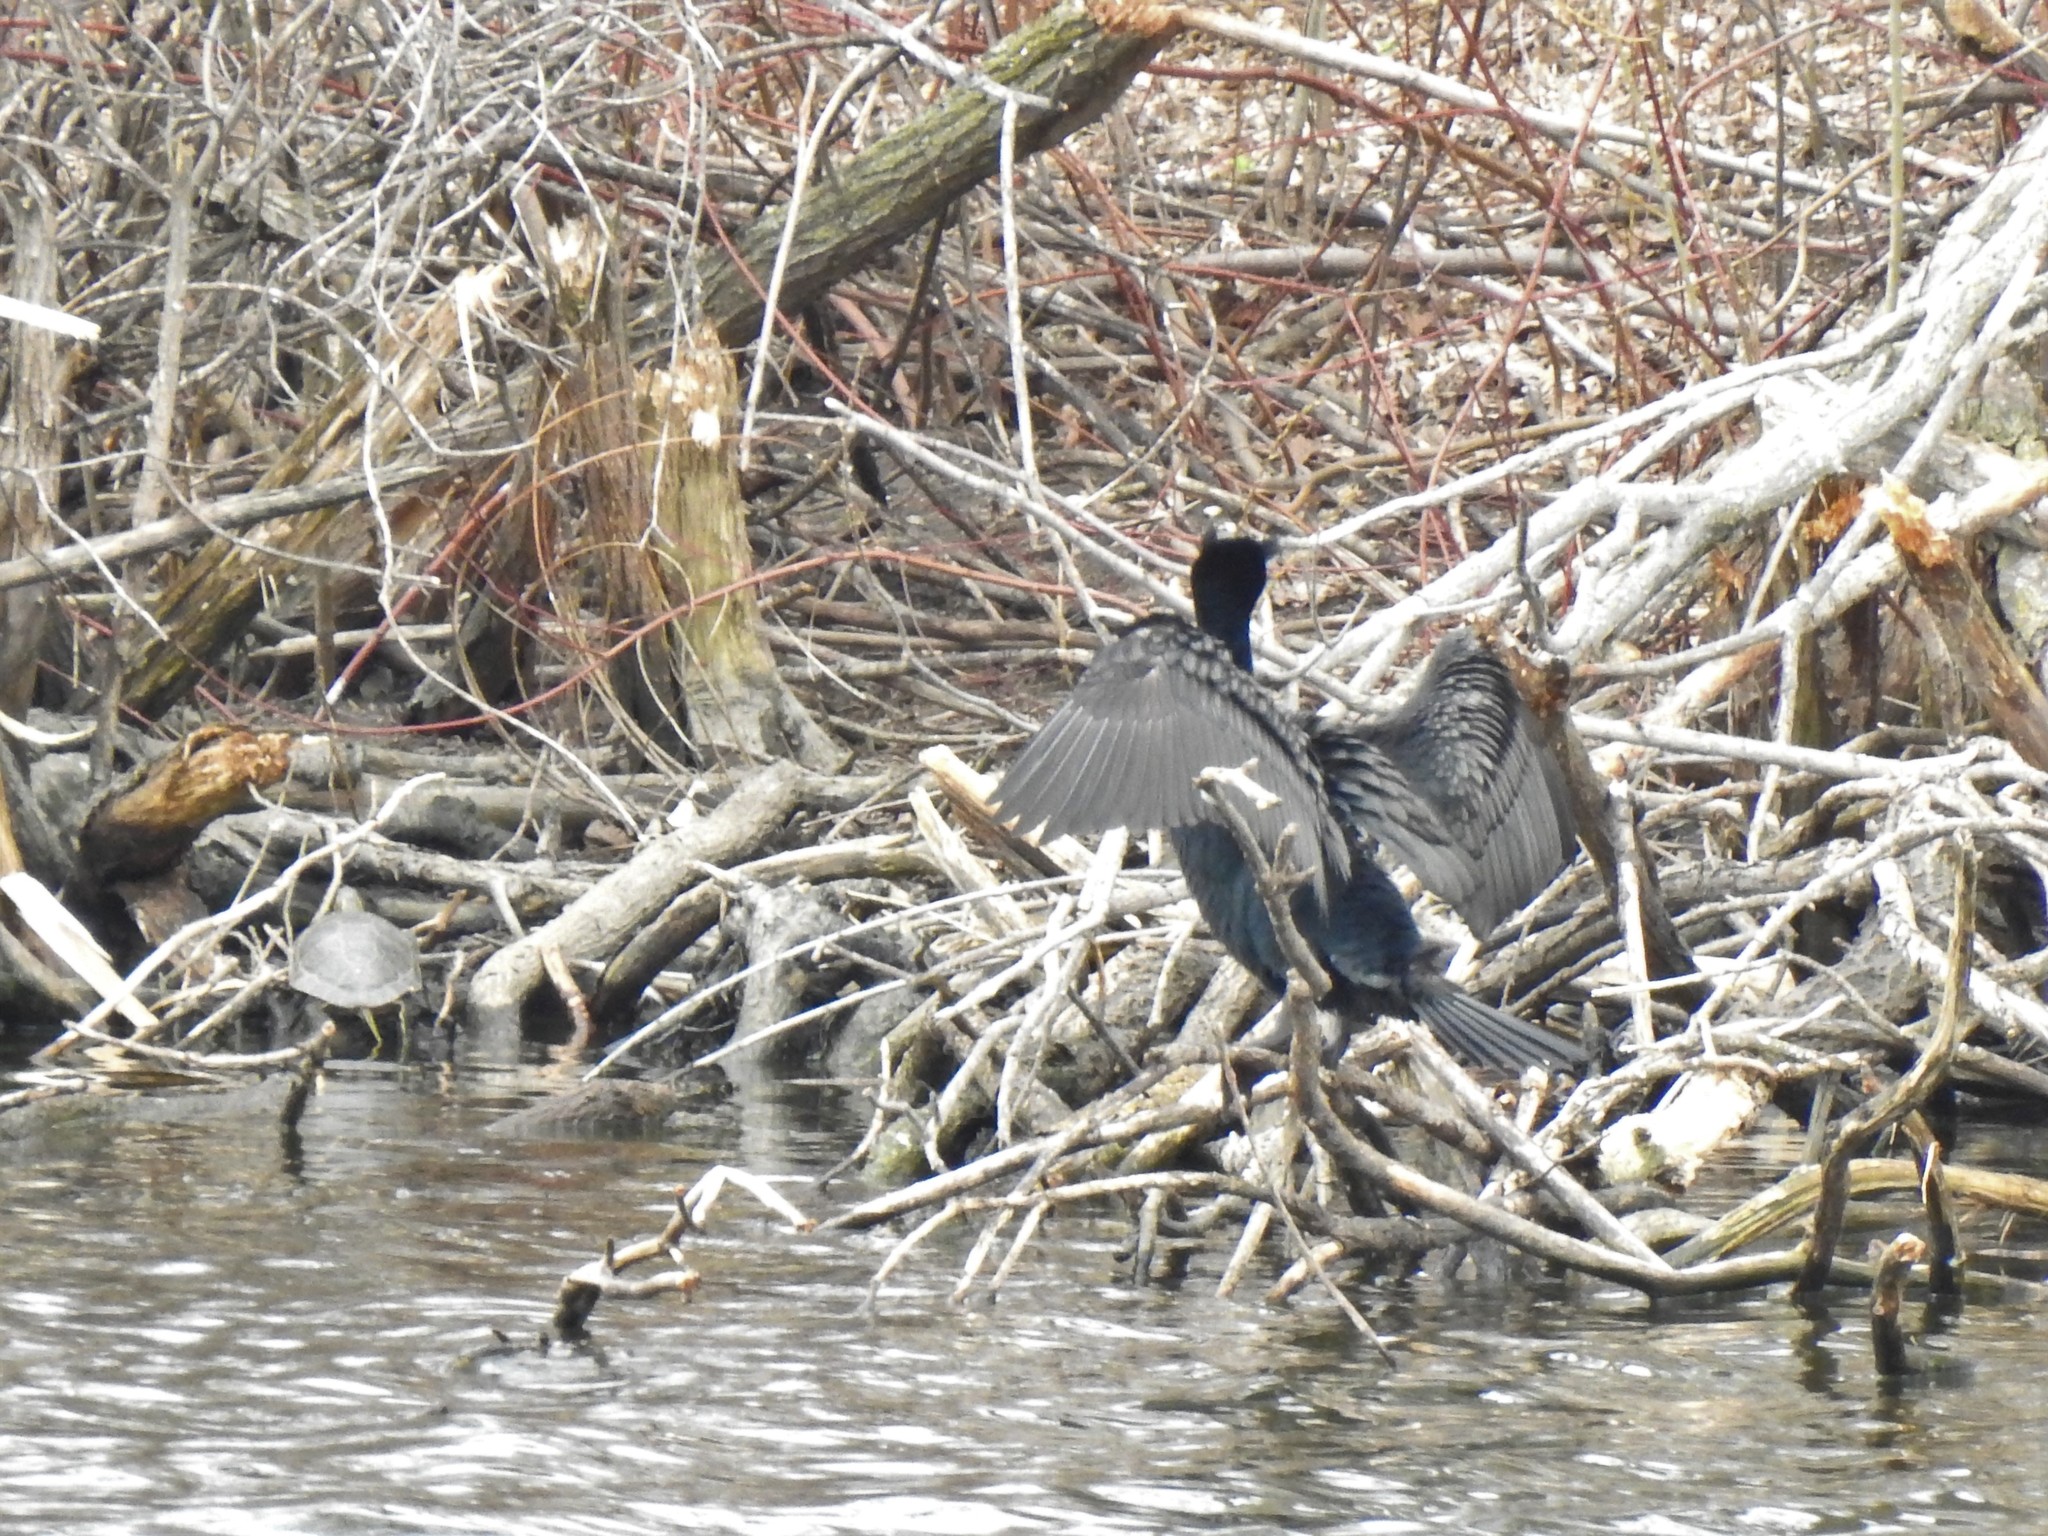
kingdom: Animalia
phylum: Chordata
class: Aves
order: Suliformes
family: Phalacrocoracidae
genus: Phalacrocorax
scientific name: Phalacrocorax auritus
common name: Double-crested cormorant
